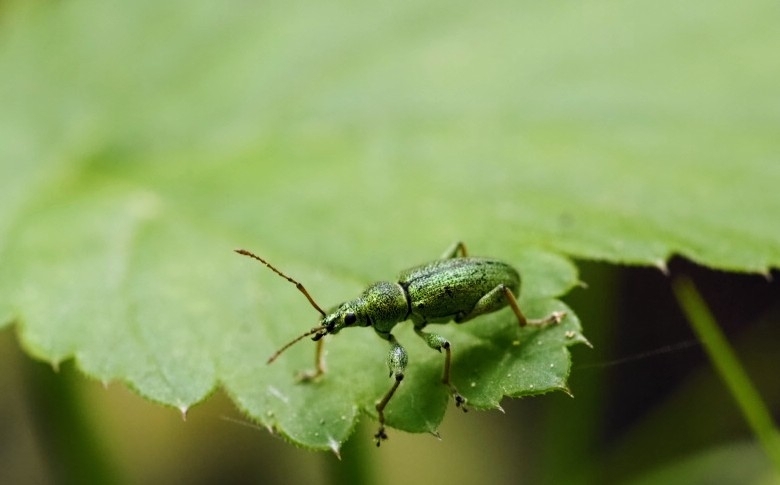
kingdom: Animalia
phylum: Arthropoda
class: Insecta
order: Coleoptera
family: Curculionidae
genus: Phyllobius
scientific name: Phyllobius arborator
